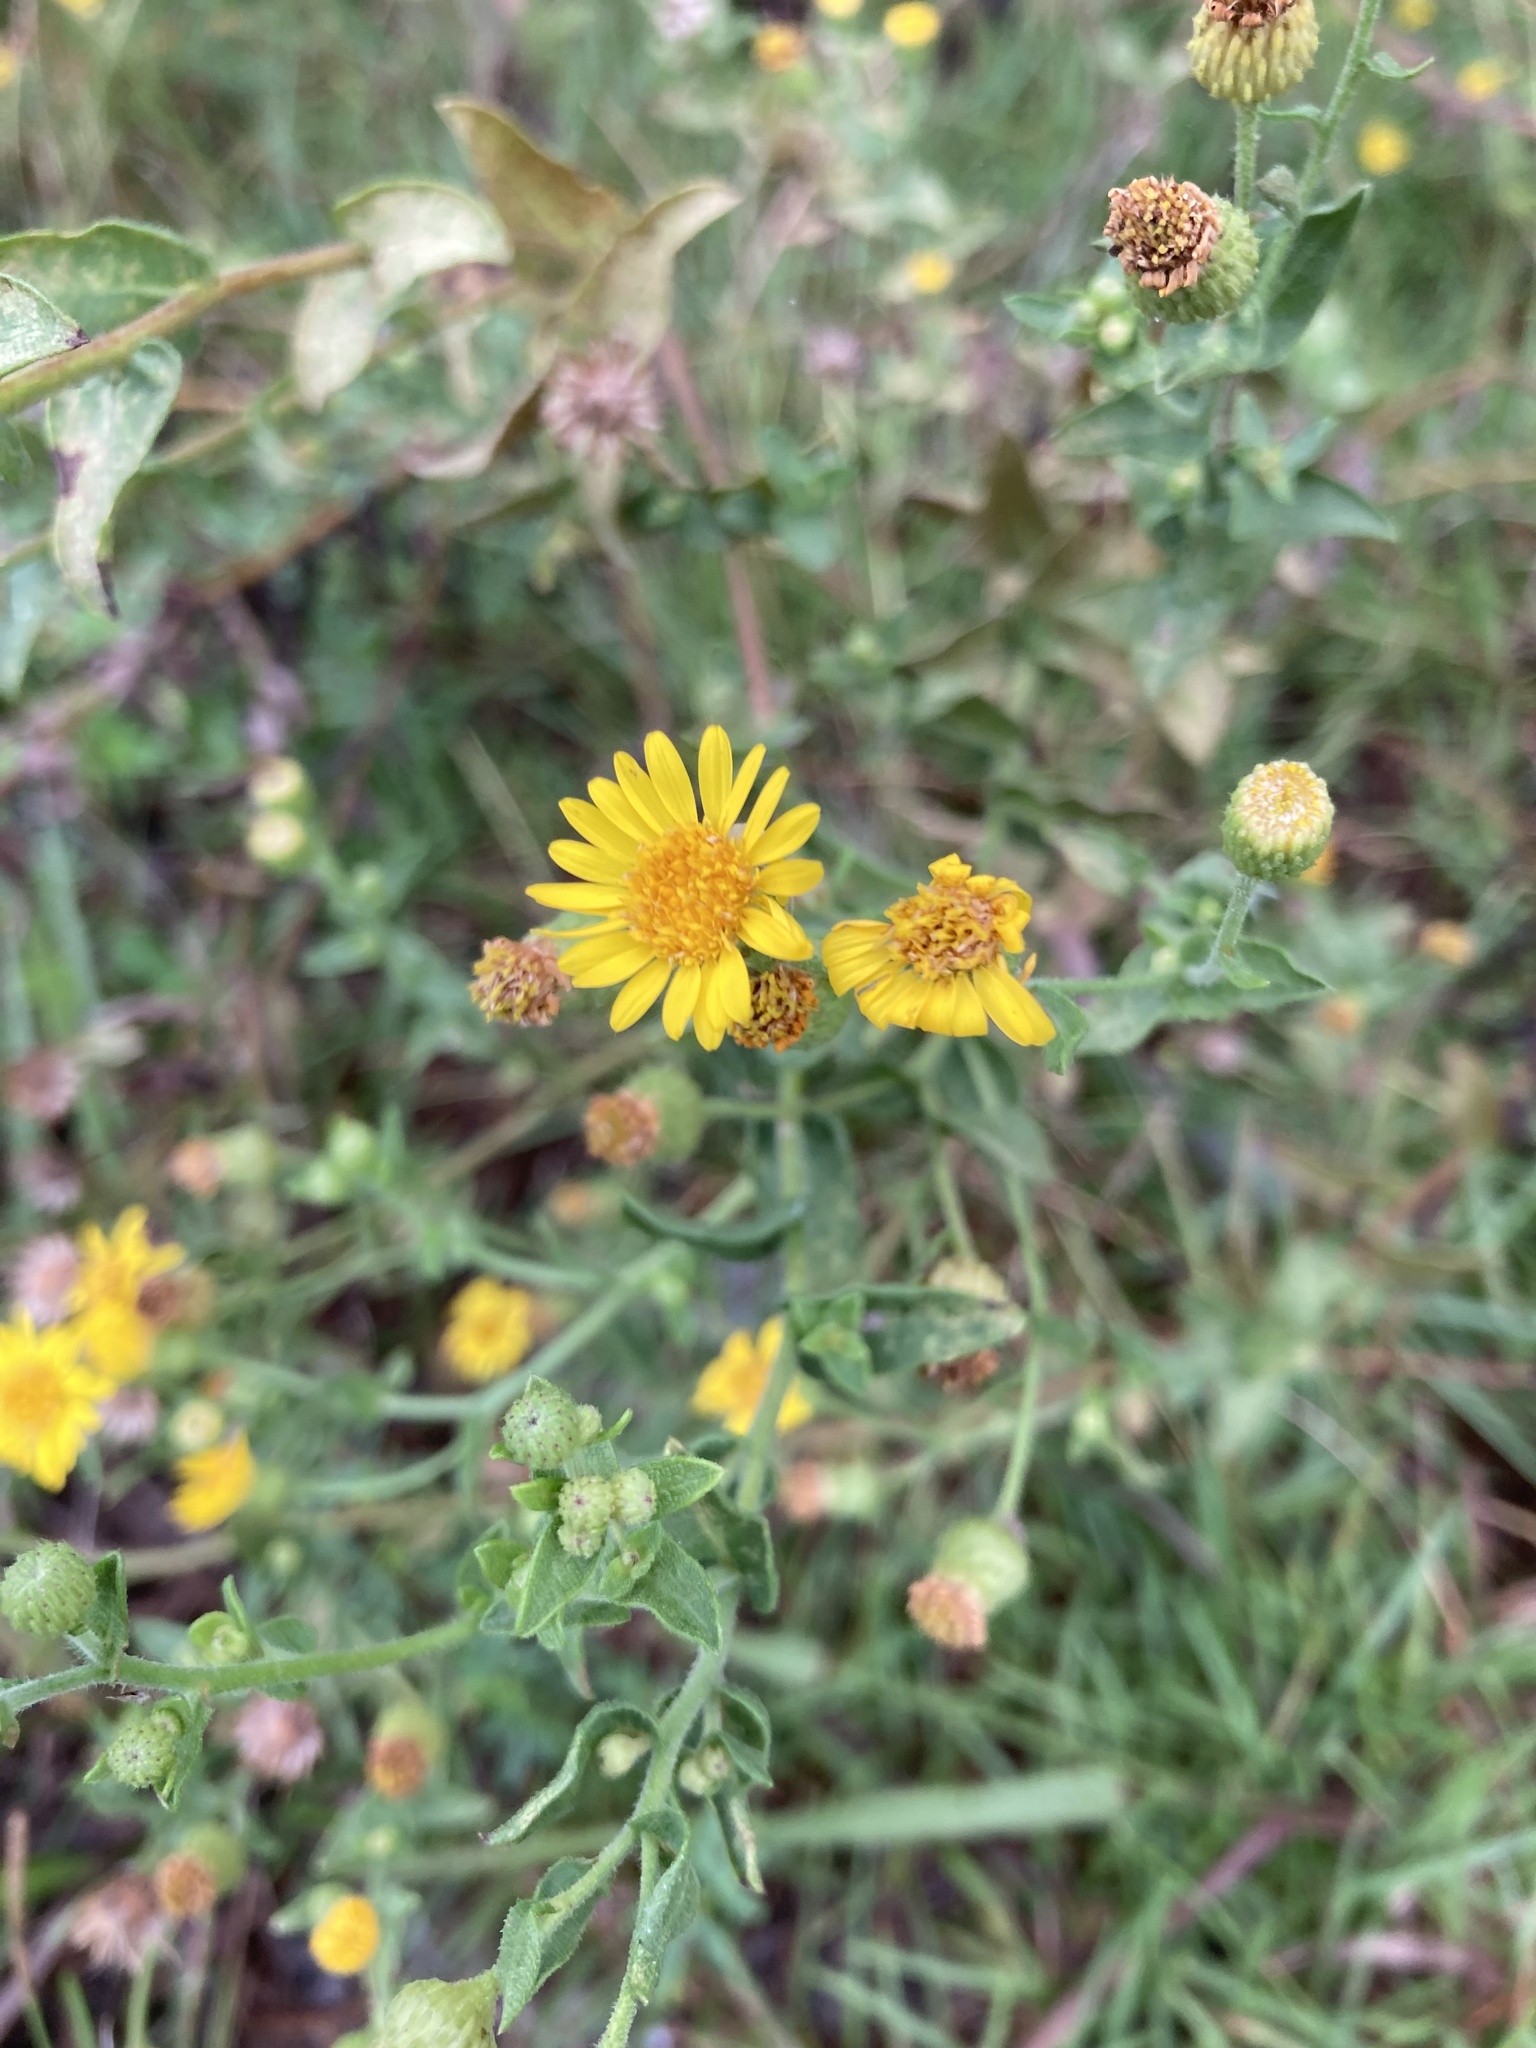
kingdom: Plantae
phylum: Tracheophyta
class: Magnoliopsida
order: Asterales
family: Asteraceae
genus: Heterotheca
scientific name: Heterotheca subaxillaris
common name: Camphorweed
